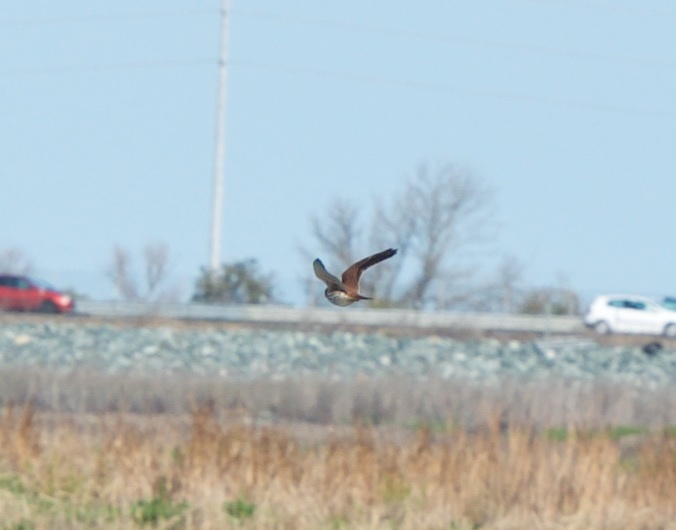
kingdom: Animalia
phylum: Chordata
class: Aves
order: Falconiformes
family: Falconidae
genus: Falco
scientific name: Falco sparverius
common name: American kestrel
